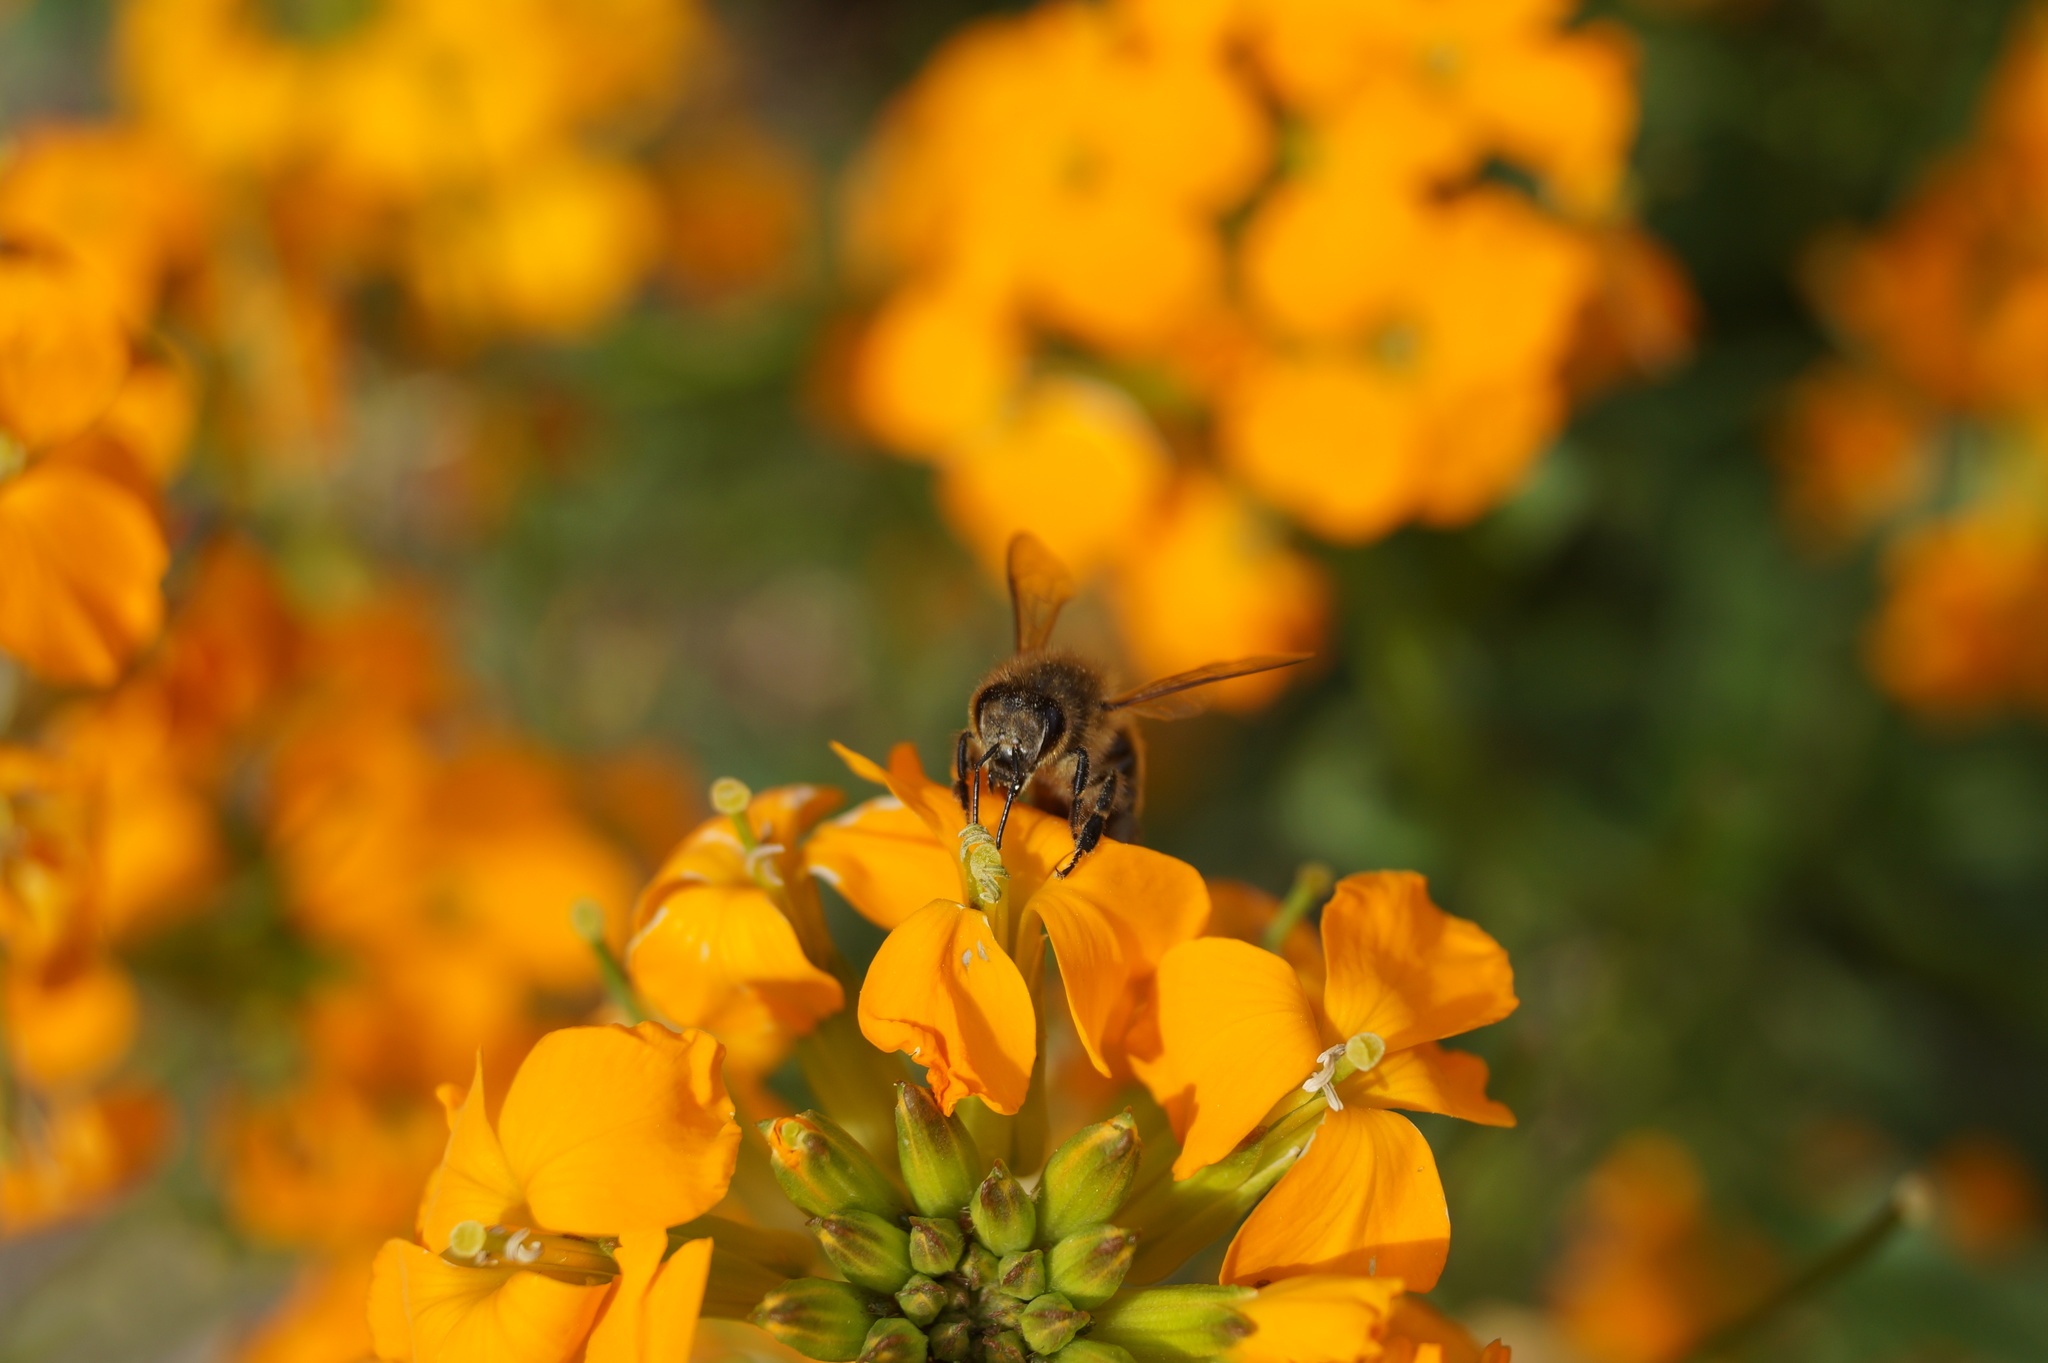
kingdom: Animalia
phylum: Arthropoda
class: Insecta
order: Hymenoptera
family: Apidae
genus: Apis
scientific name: Apis mellifera
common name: Honey bee
